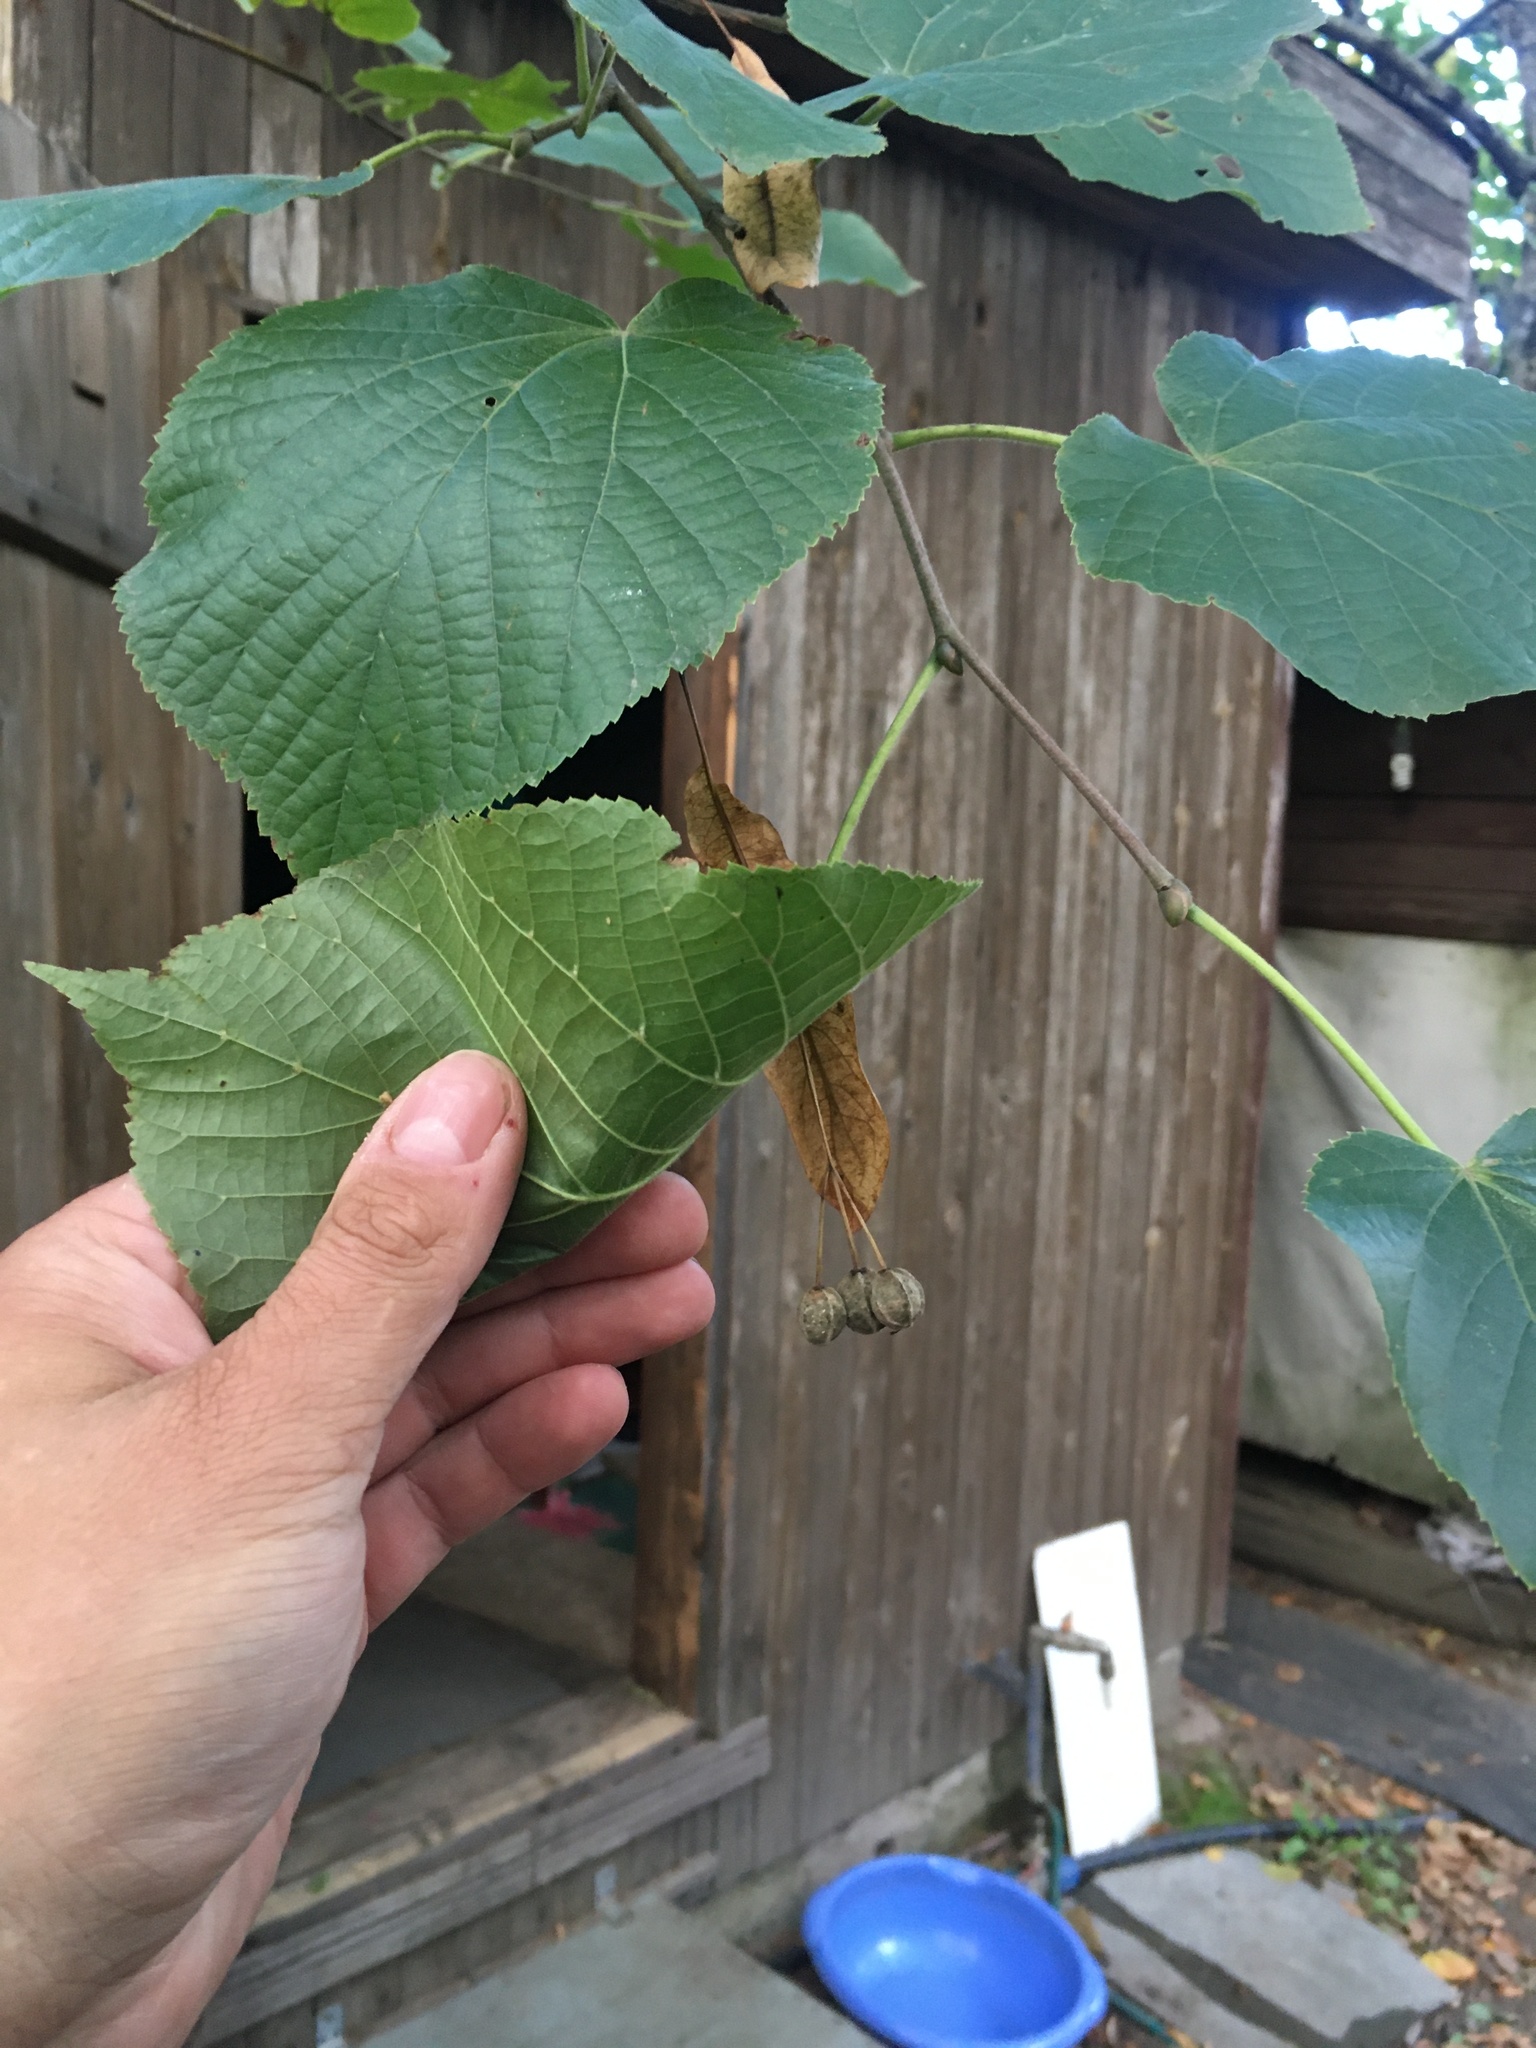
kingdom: Plantae
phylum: Tracheophyta
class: Magnoliopsida
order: Malvales
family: Malvaceae
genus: Tilia
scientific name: Tilia cordata
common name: Small-leaved lime
